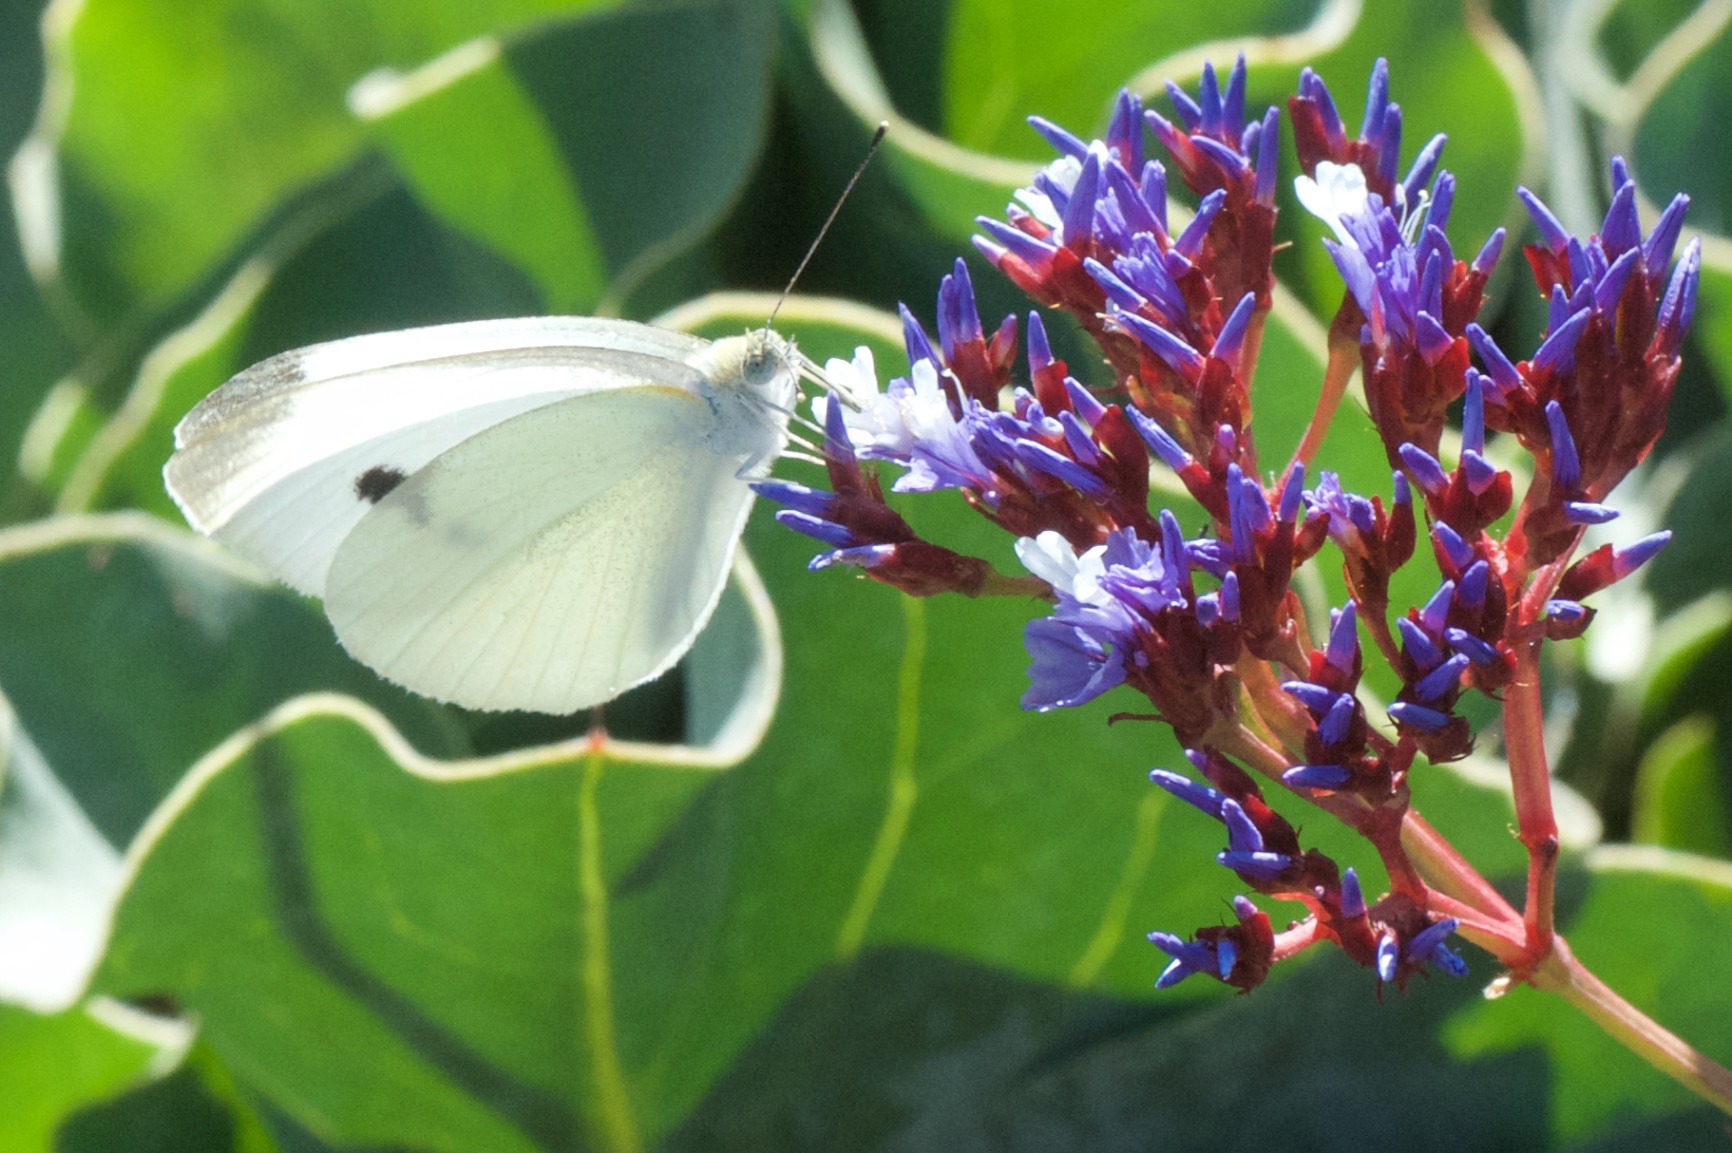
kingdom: Animalia
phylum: Arthropoda
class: Insecta
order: Lepidoptera
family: Pieridae
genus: Pieris
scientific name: Pieris rapae
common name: Small white
